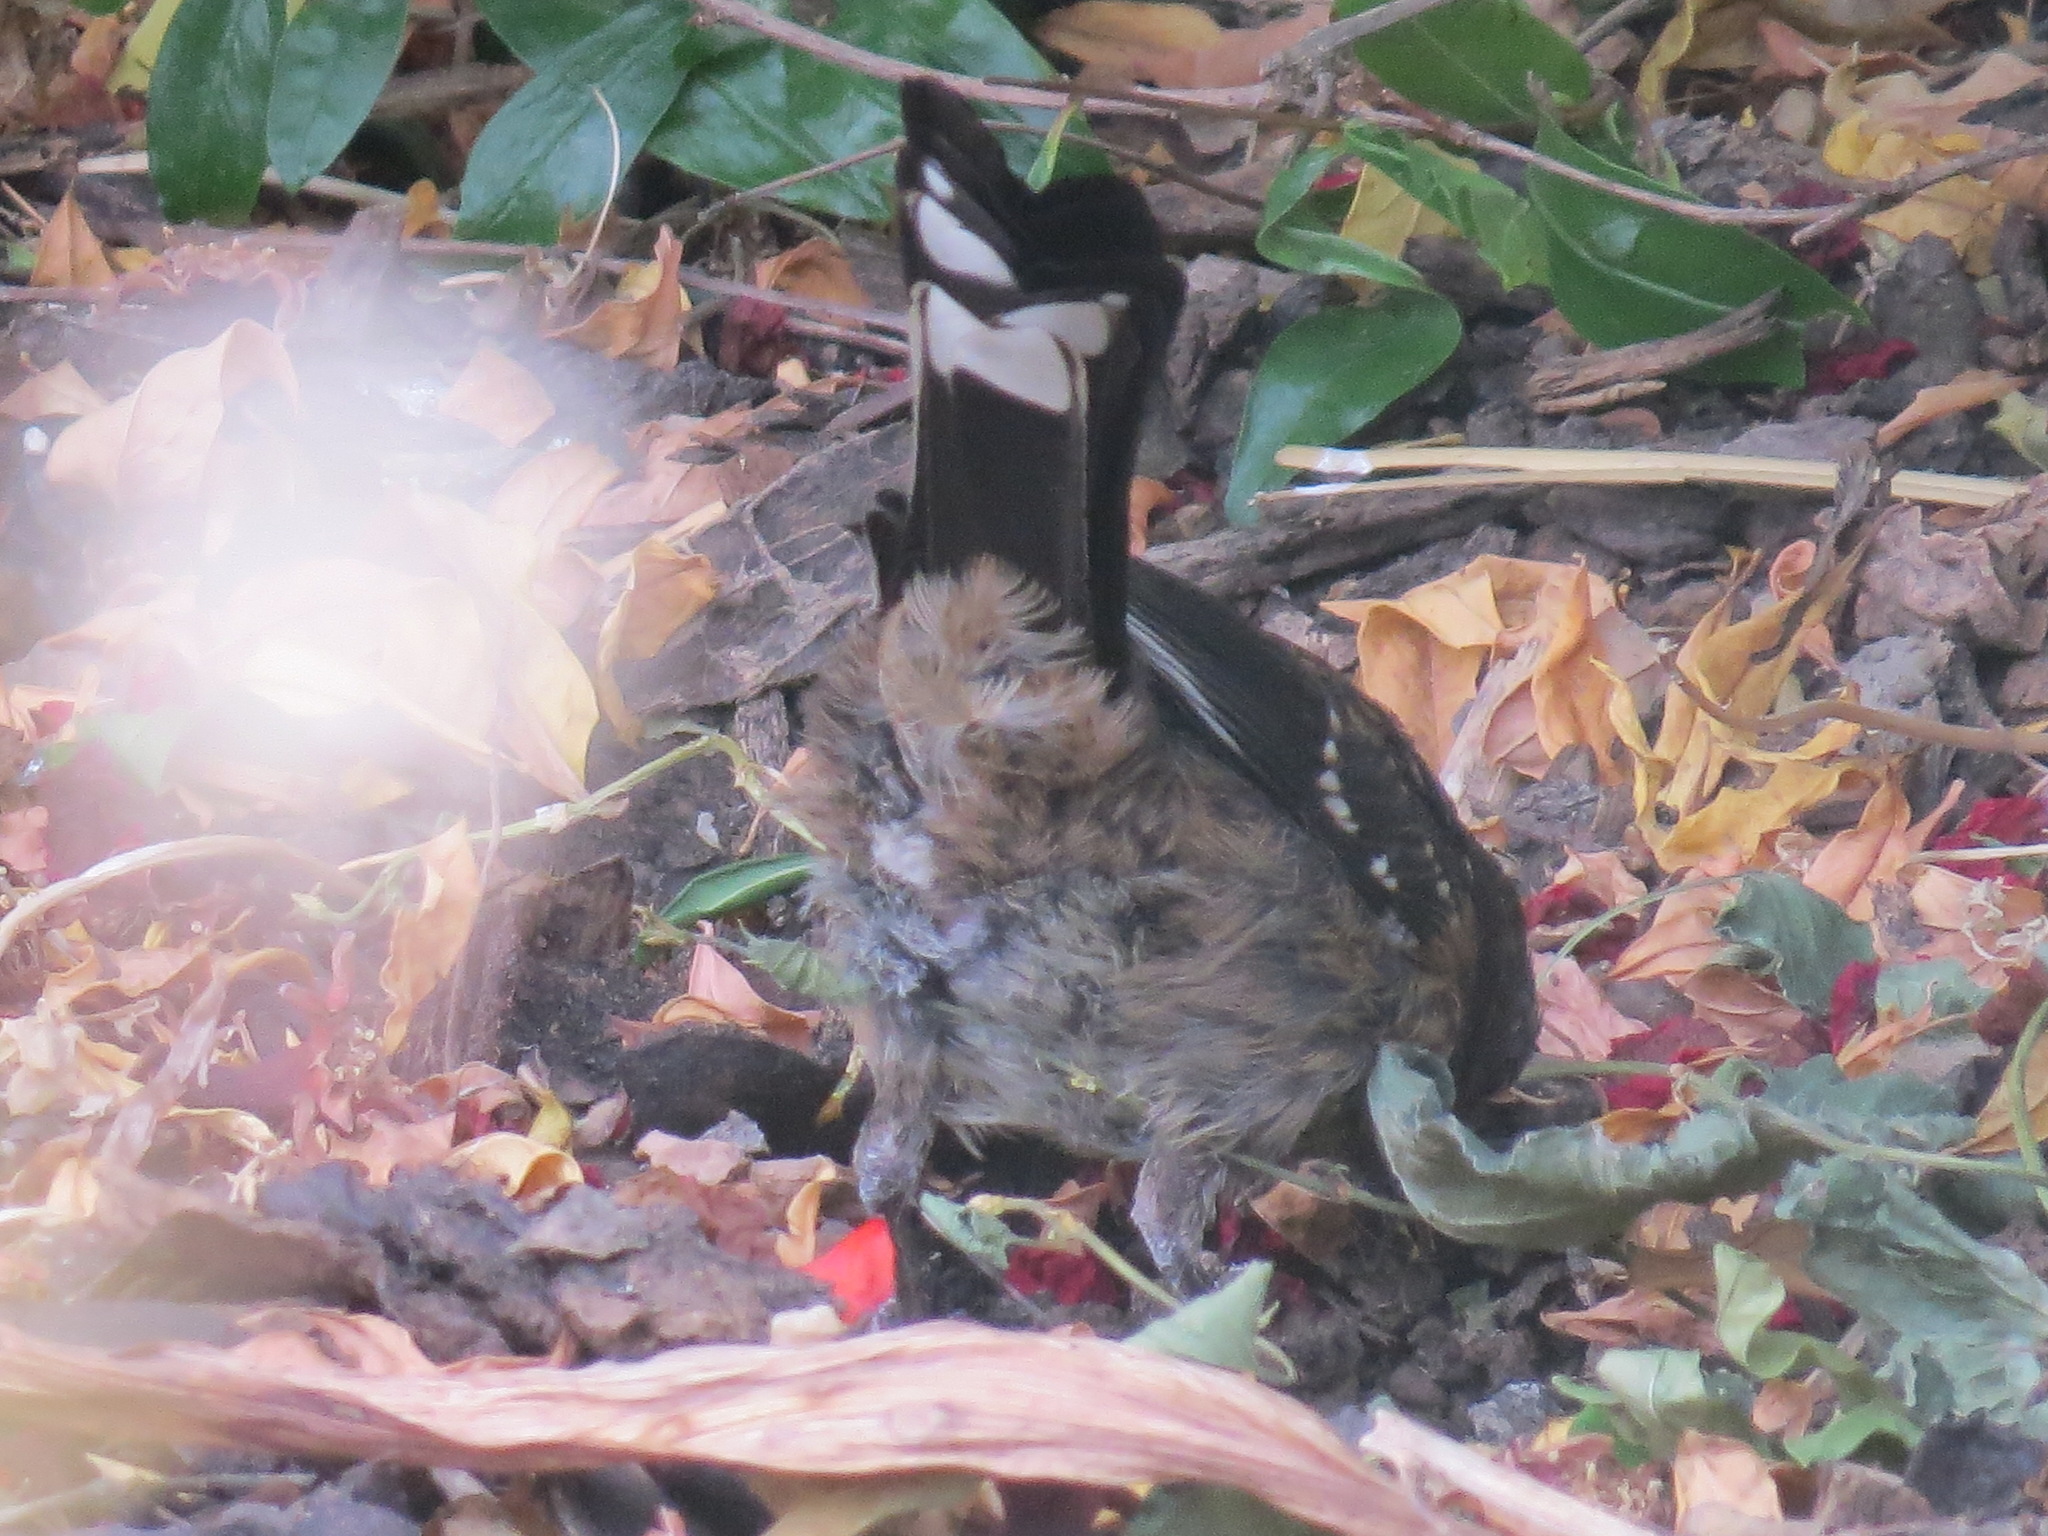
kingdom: Animalia
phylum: Chordata
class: Aves
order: Passeriformes
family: Passerellidae
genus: Pipilo
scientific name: Pipilo maculatus
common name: Spotted towhee
